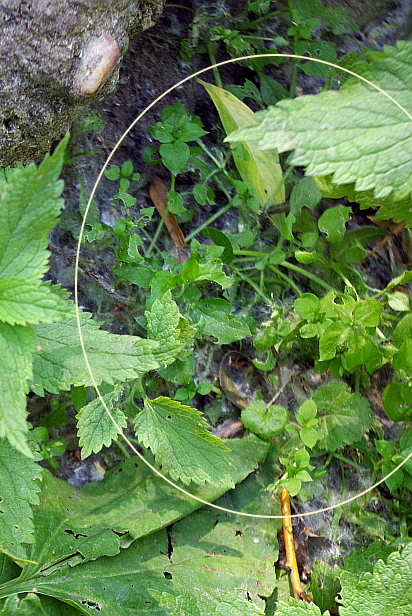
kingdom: Plantae
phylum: Tracheophyta
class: Magnoliopsida
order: Caryophyllales
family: Caryophyllaceae
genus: Stellaria
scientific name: Stellaria media
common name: Common chickweed
